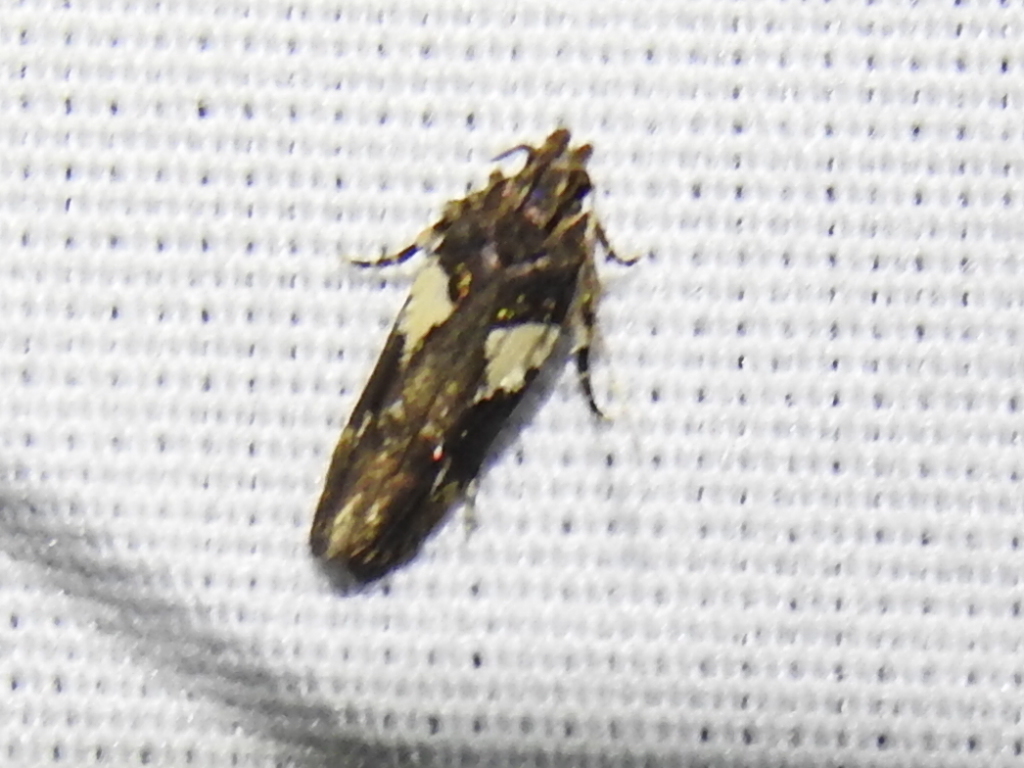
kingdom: Animalia
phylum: Arthropoda
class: Insecta
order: Lepidoptera
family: Gelechiidae
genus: Friseria
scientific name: Friseria acaciella
